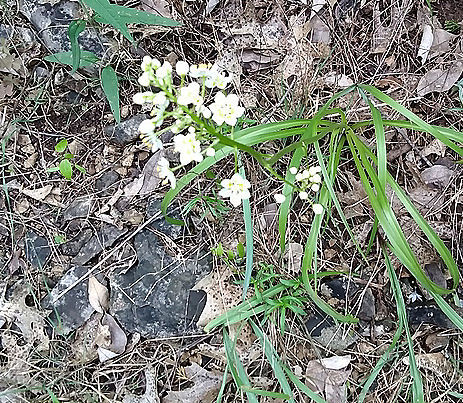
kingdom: Plantae
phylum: Tracheophyta
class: Liliopsida
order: Liliales
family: Melanthiaceae
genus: Toxicoscordion
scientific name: Toxicoscordion nuttallii
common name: Poison sego
